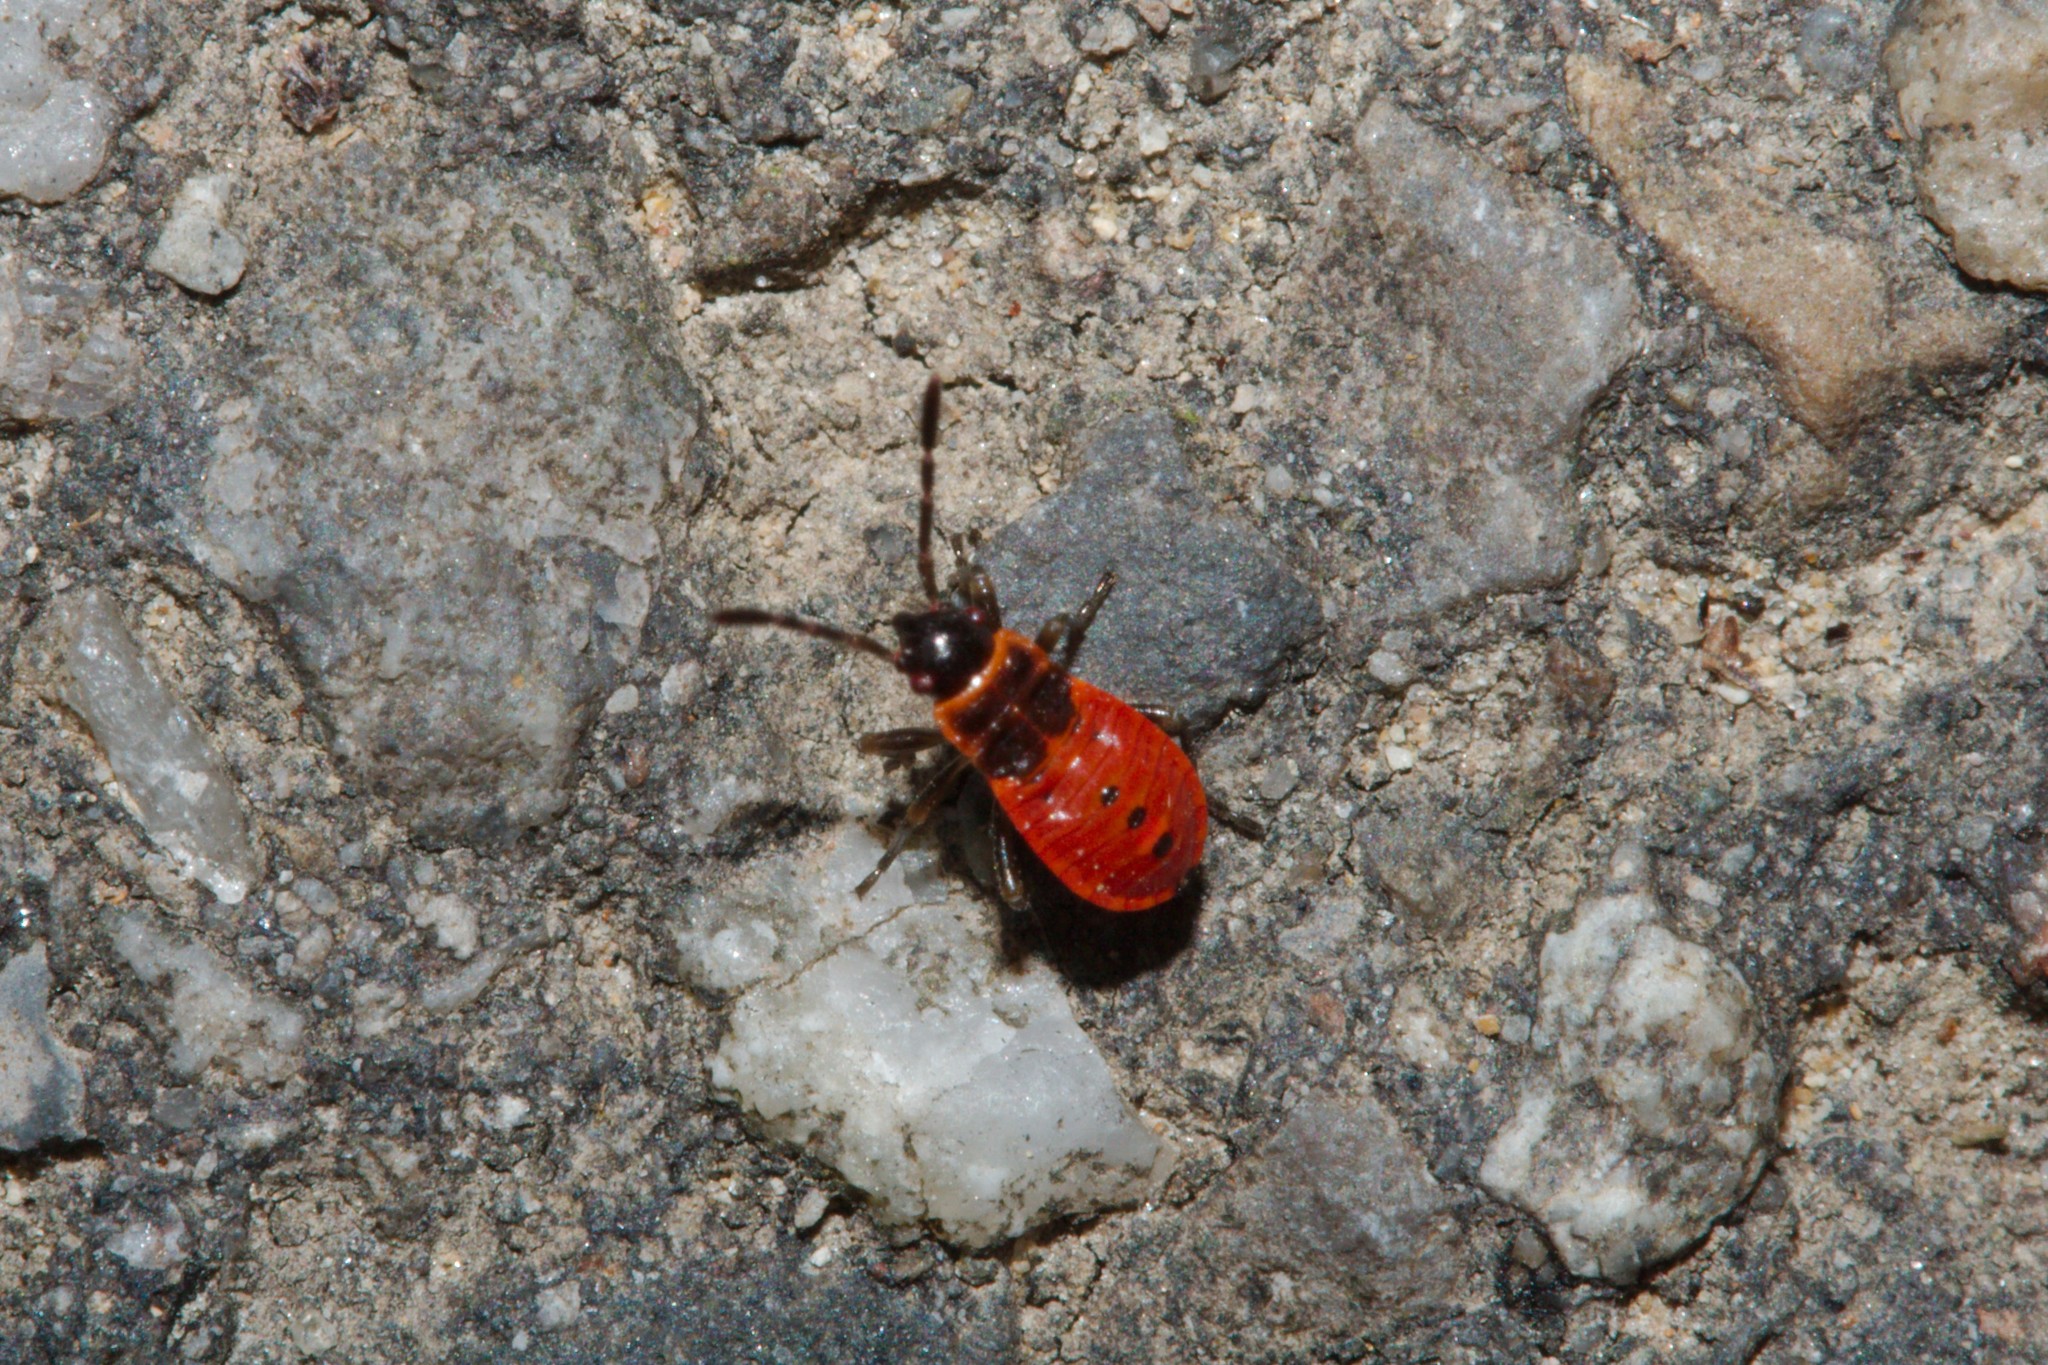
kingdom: Animalia
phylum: Arthropoda
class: Insecta
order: Hemiptera
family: Pyrrhocoridae
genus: Pyrrhocoris
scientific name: Pyrrhocoris apterus
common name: Firebug
